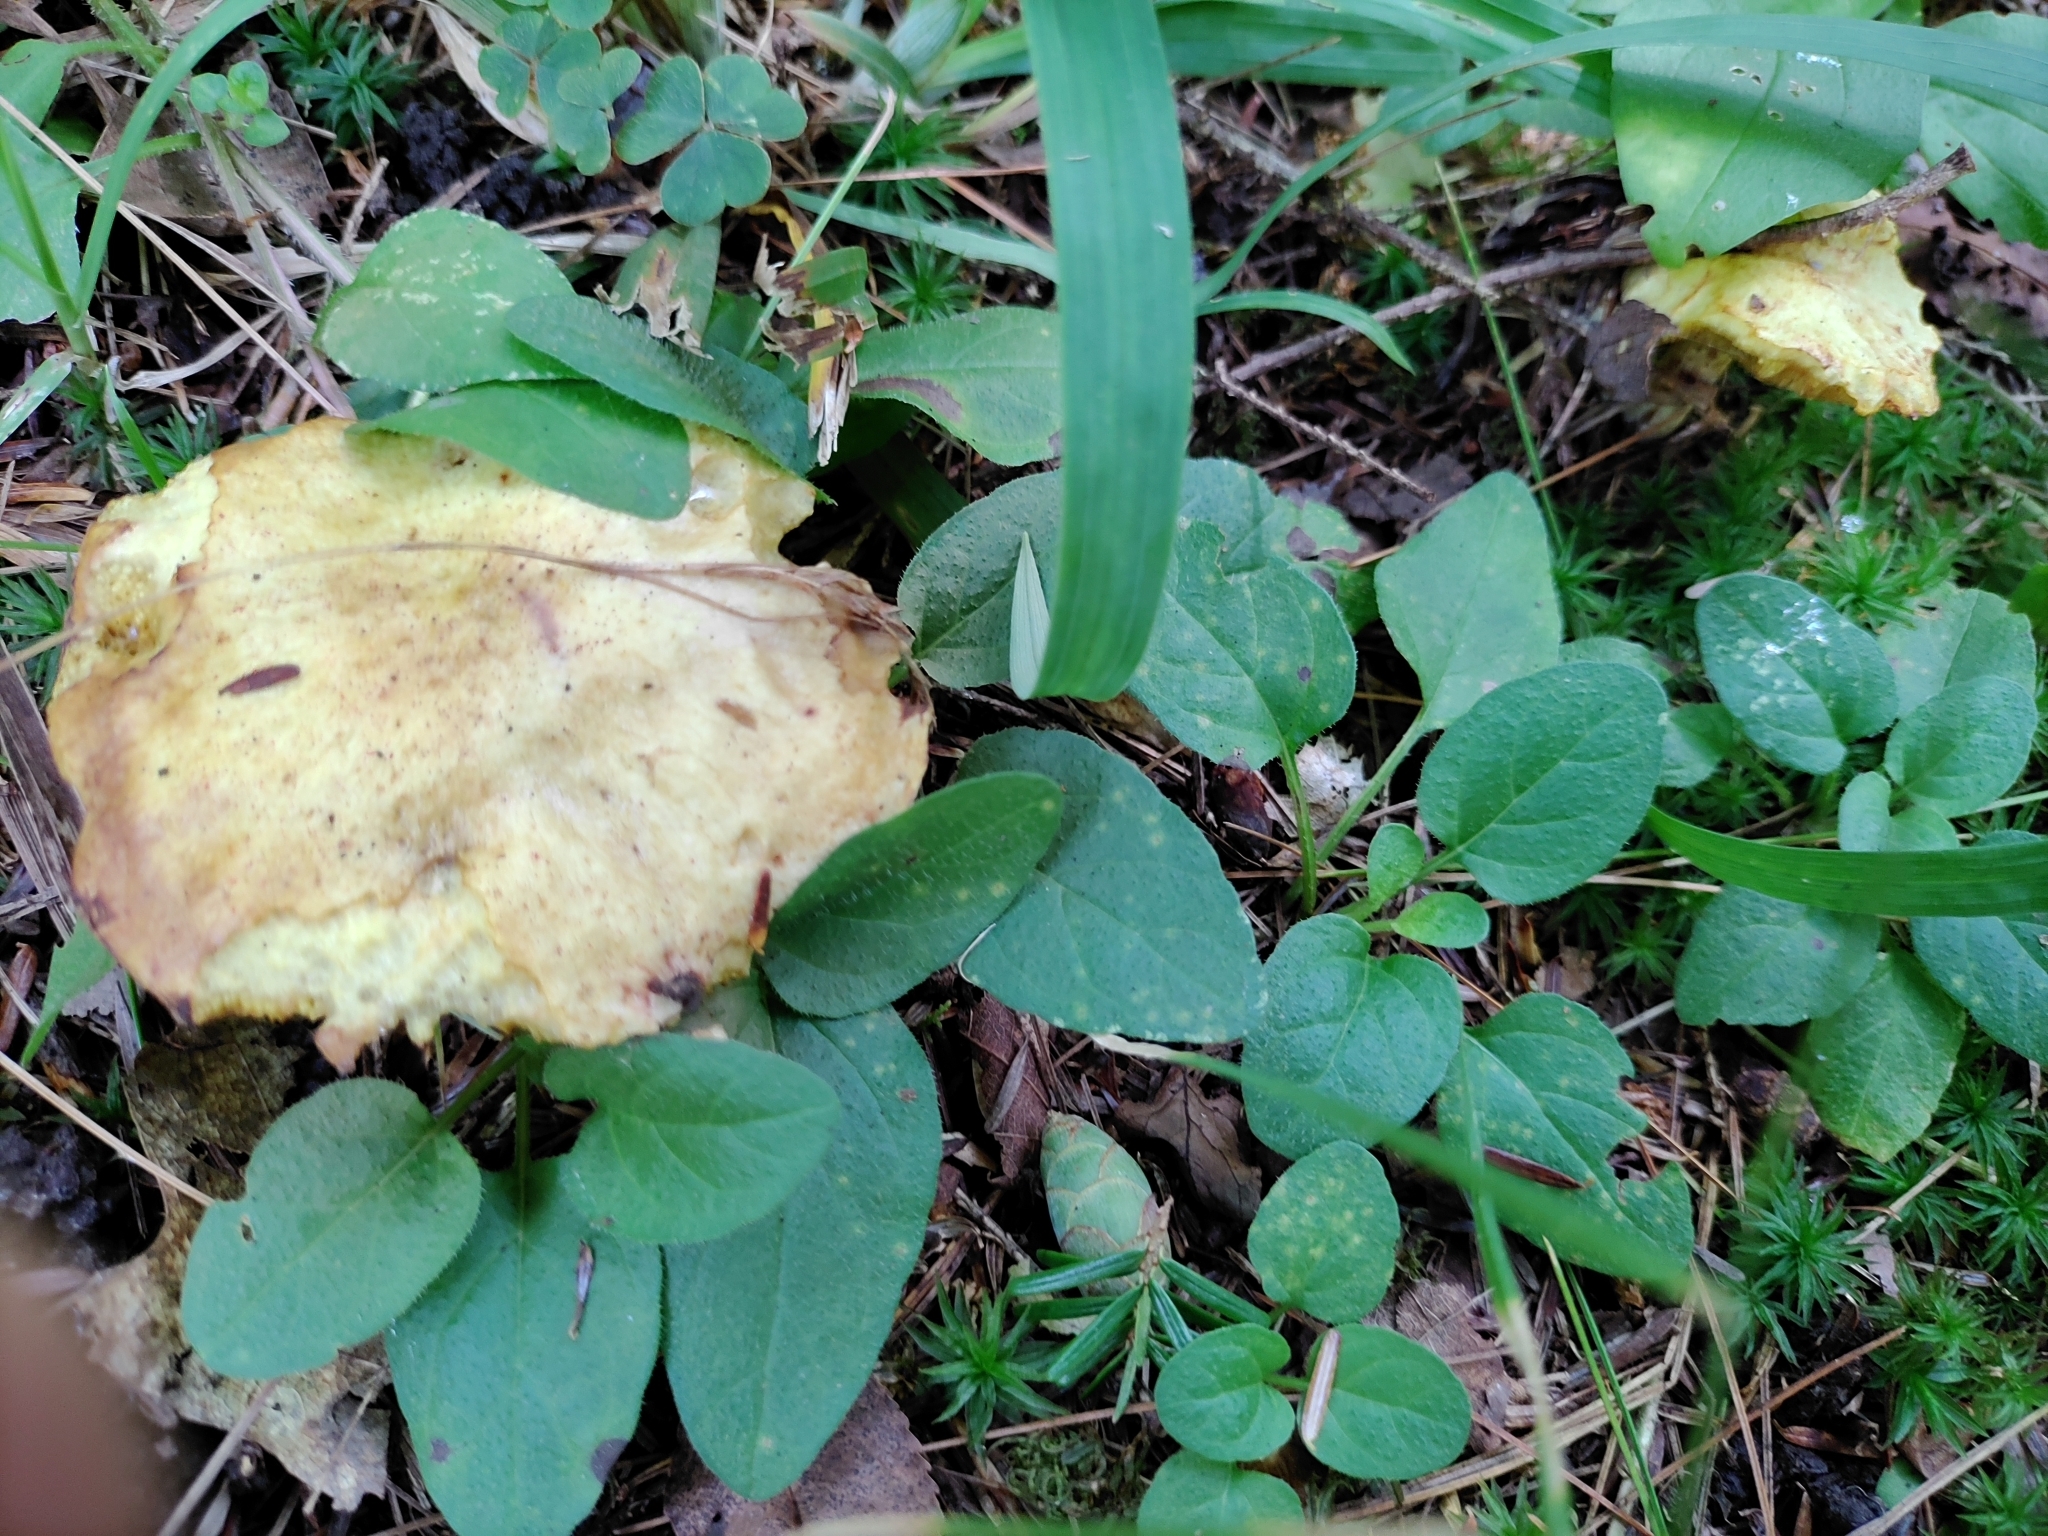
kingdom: Fungi
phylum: Basidiomycota
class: Agaricomycetes
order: Boletales
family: Suillaceae
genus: Suillus
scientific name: Suillus americanus
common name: Chicken fat mushroom
